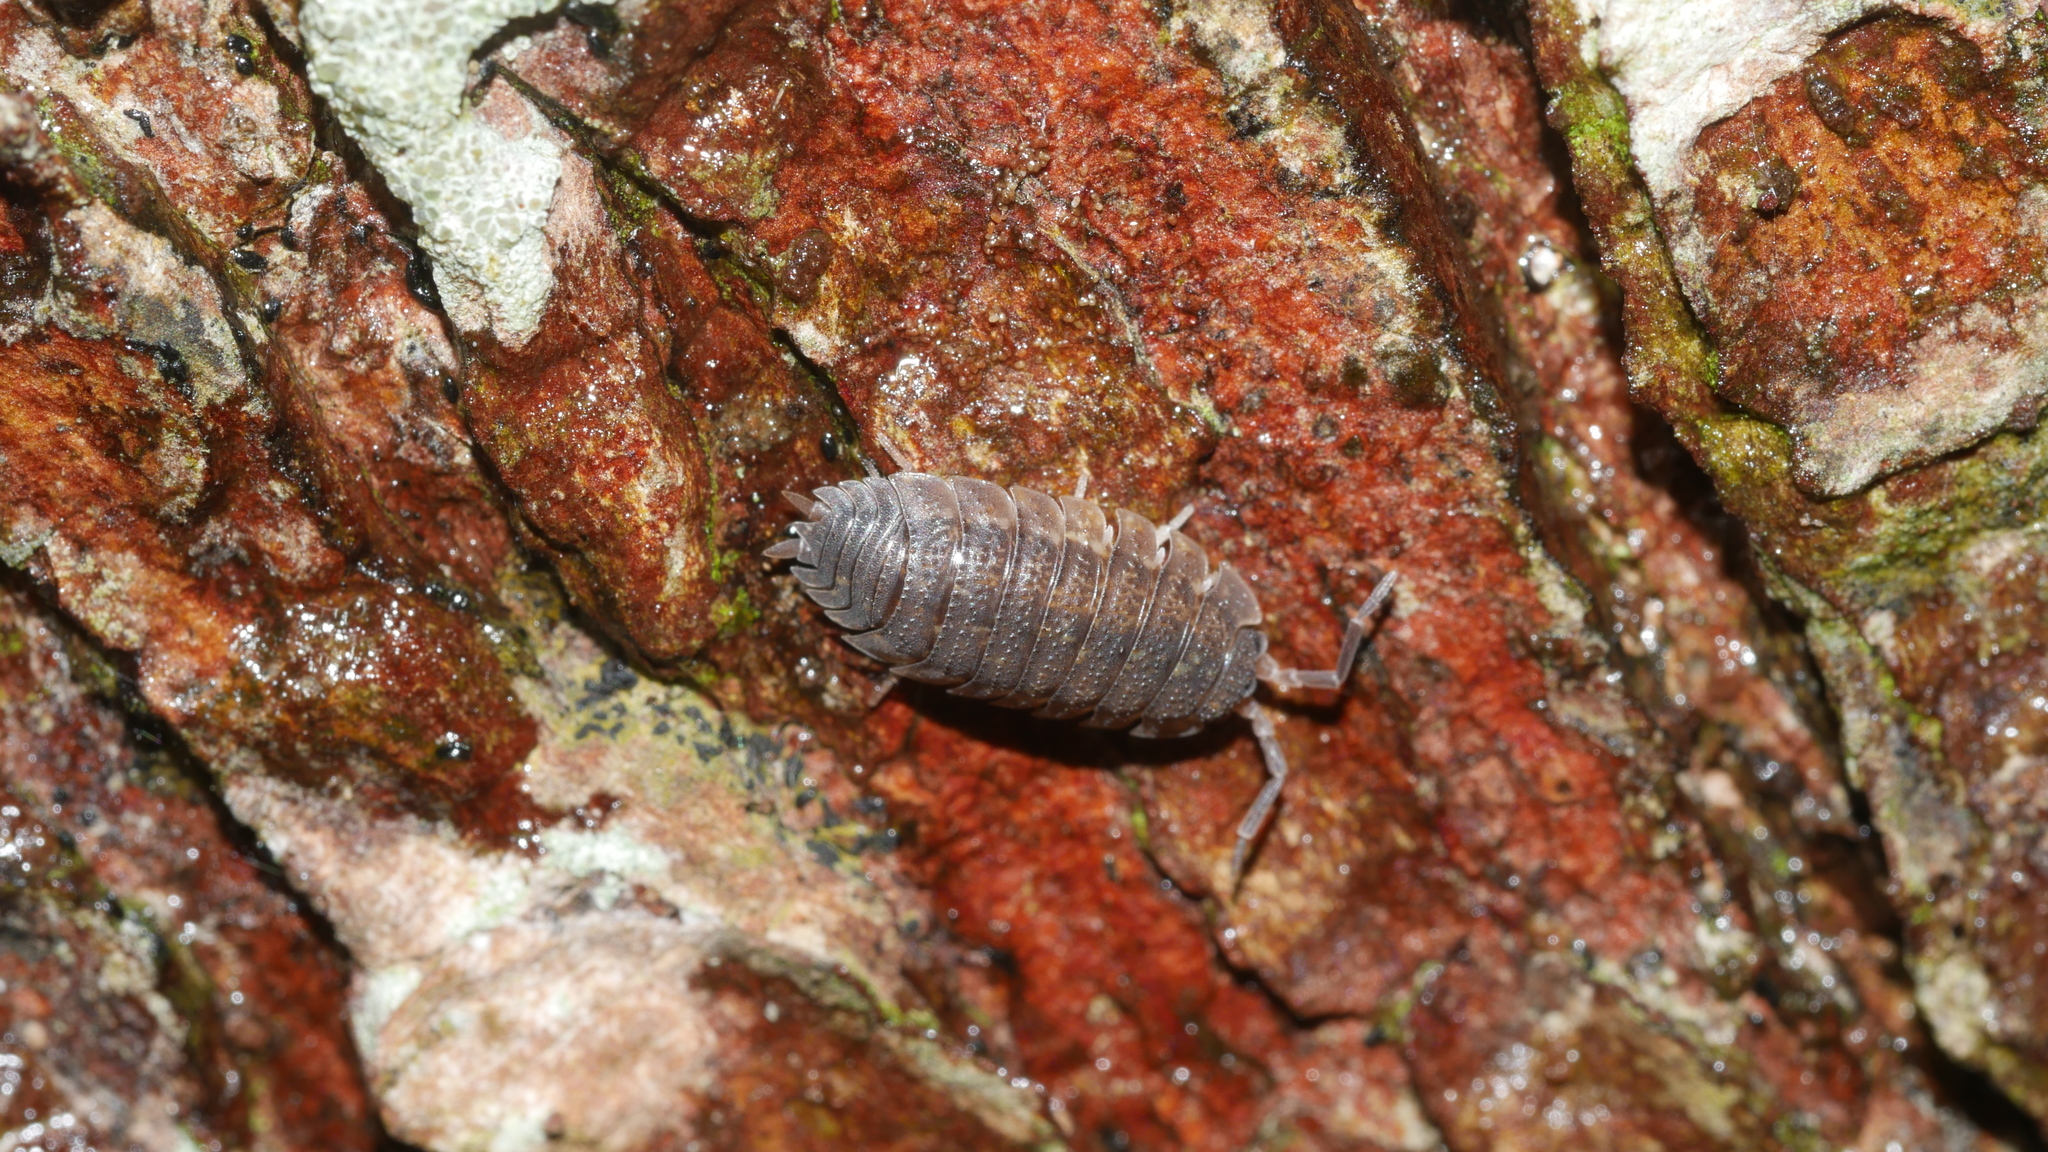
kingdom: Animalia
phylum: Arthropoda
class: Malacostraca
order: Isopoda
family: Porcellionidae
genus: Porcellio
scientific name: Porcellio scaber
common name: Common rough woodlouse
